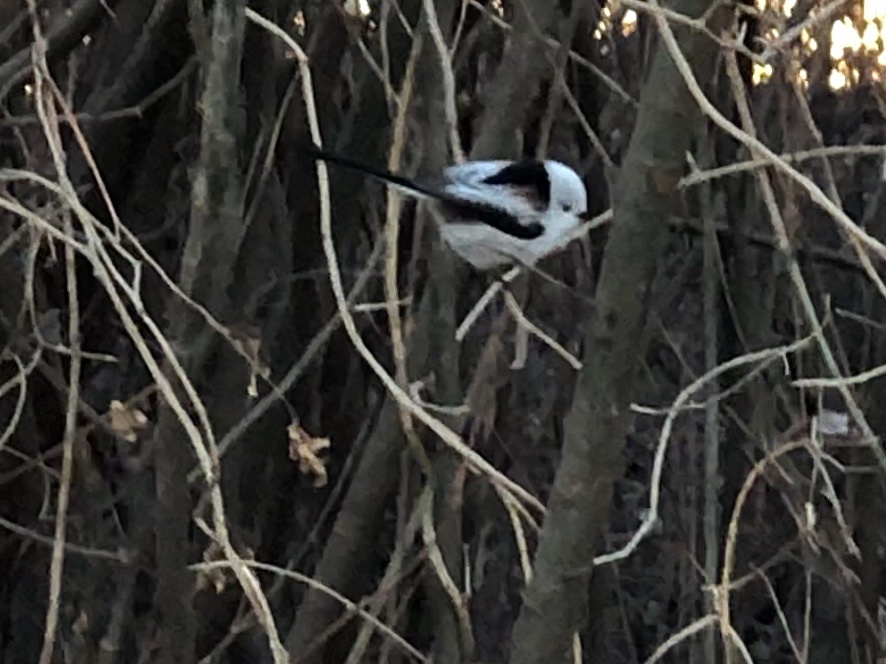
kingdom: Animalia
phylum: Chordata
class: Aves
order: Passeriformes
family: Aegithalidae
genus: Aegithalos
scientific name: Aegithalos caudatus
